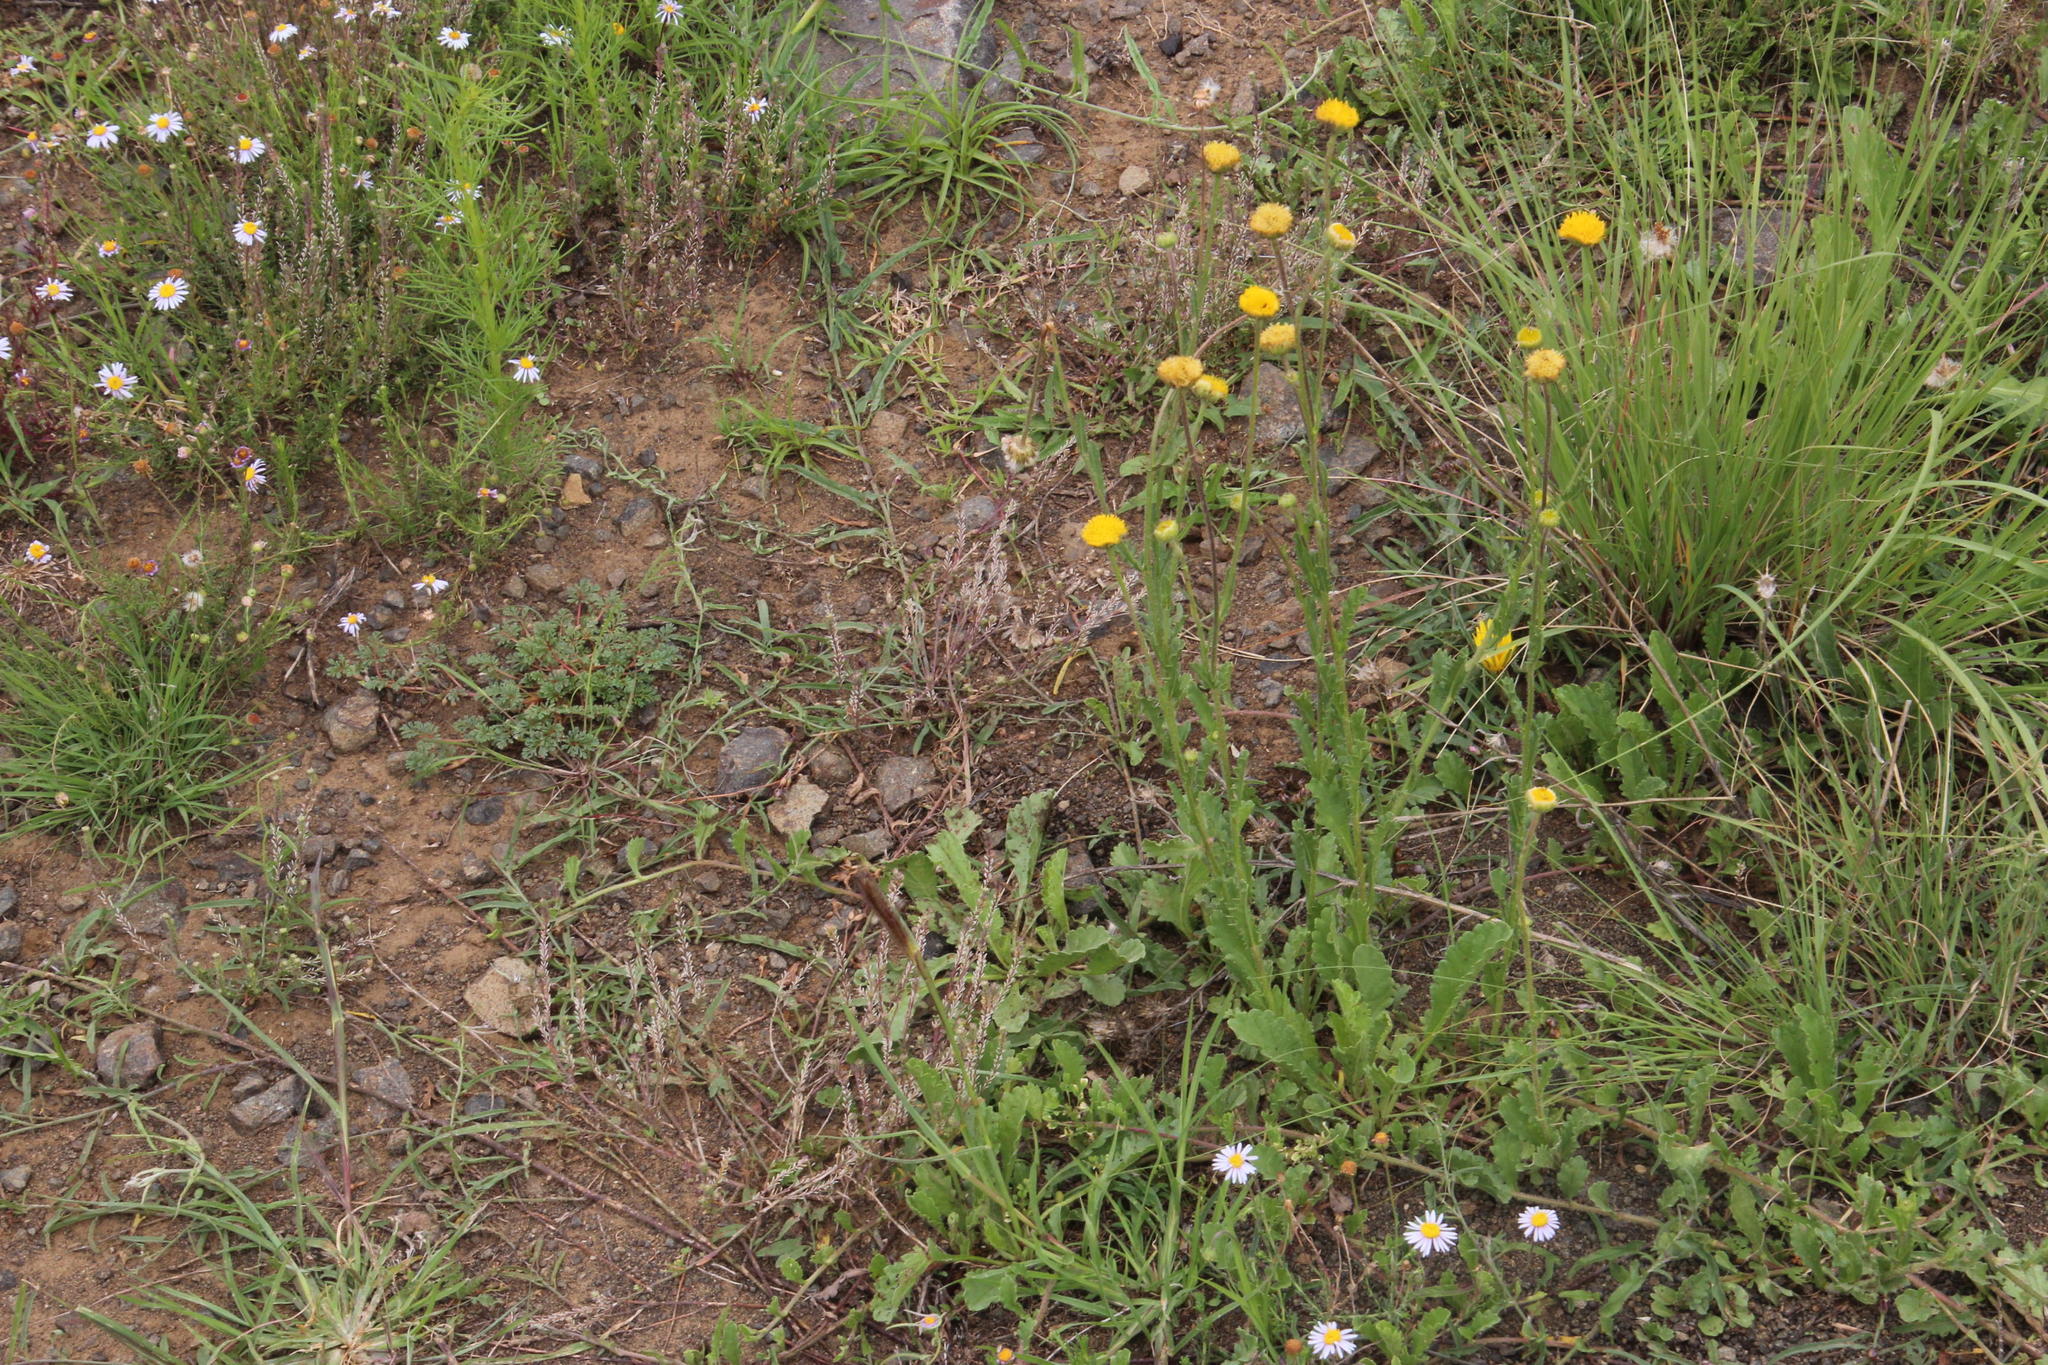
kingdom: Plantae
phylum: Tracheophyta
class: Magnoliopsida
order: Asterales
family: Asteraceae
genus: Nidorella
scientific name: Nidorella podocephala
